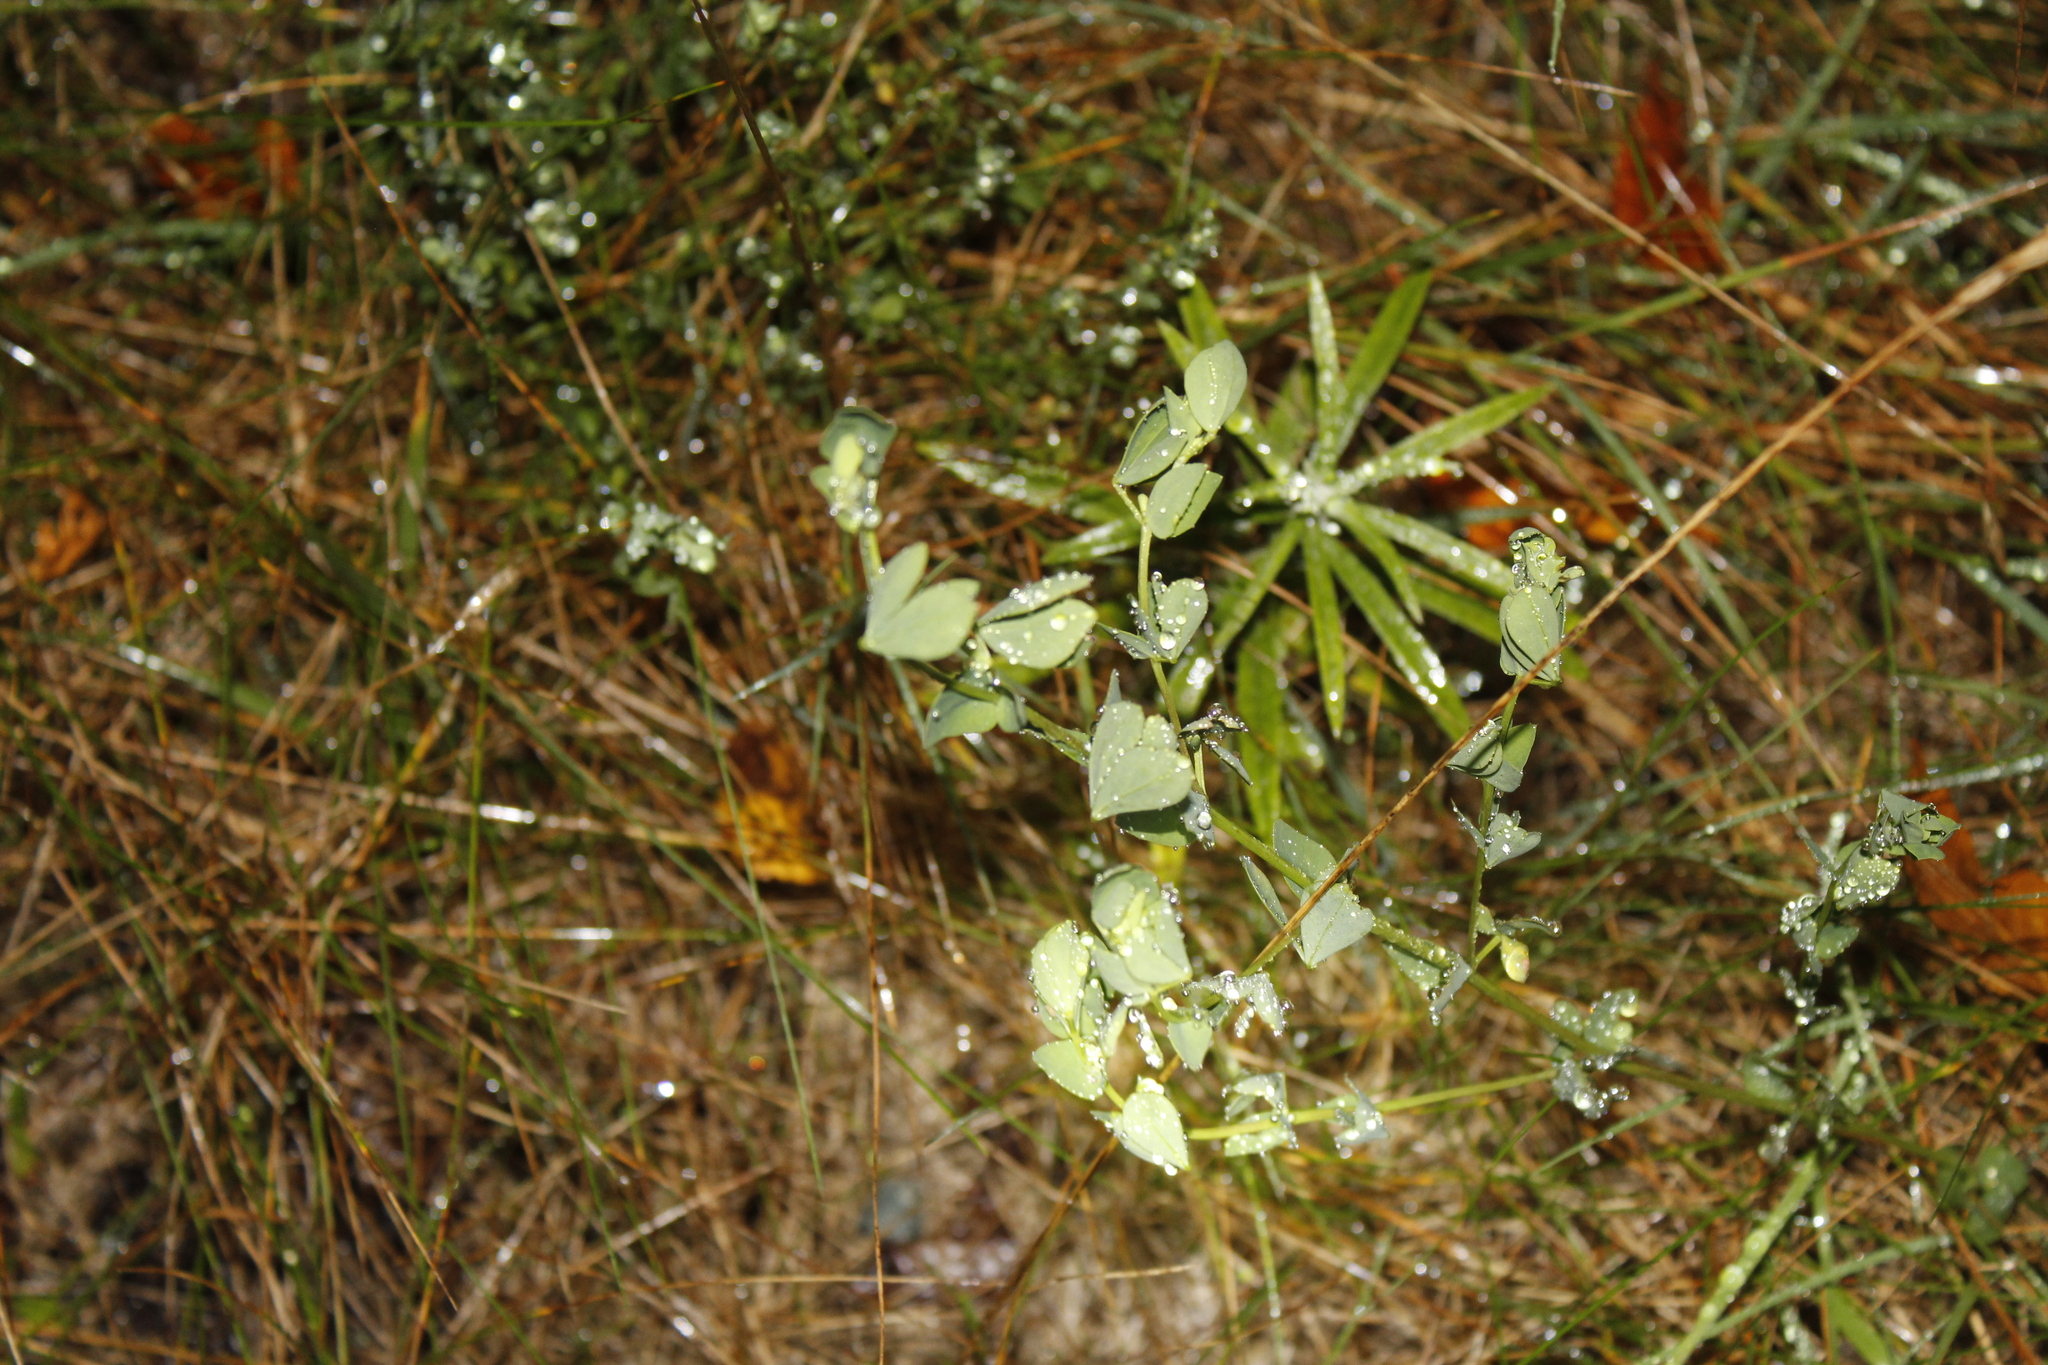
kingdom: Plantae
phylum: Tracheophyta
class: Magnoliopsida
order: Fabales
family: Fabaceae
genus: Lotus
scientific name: Lotus corniculatus
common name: Common bird's-foot-trefoil
